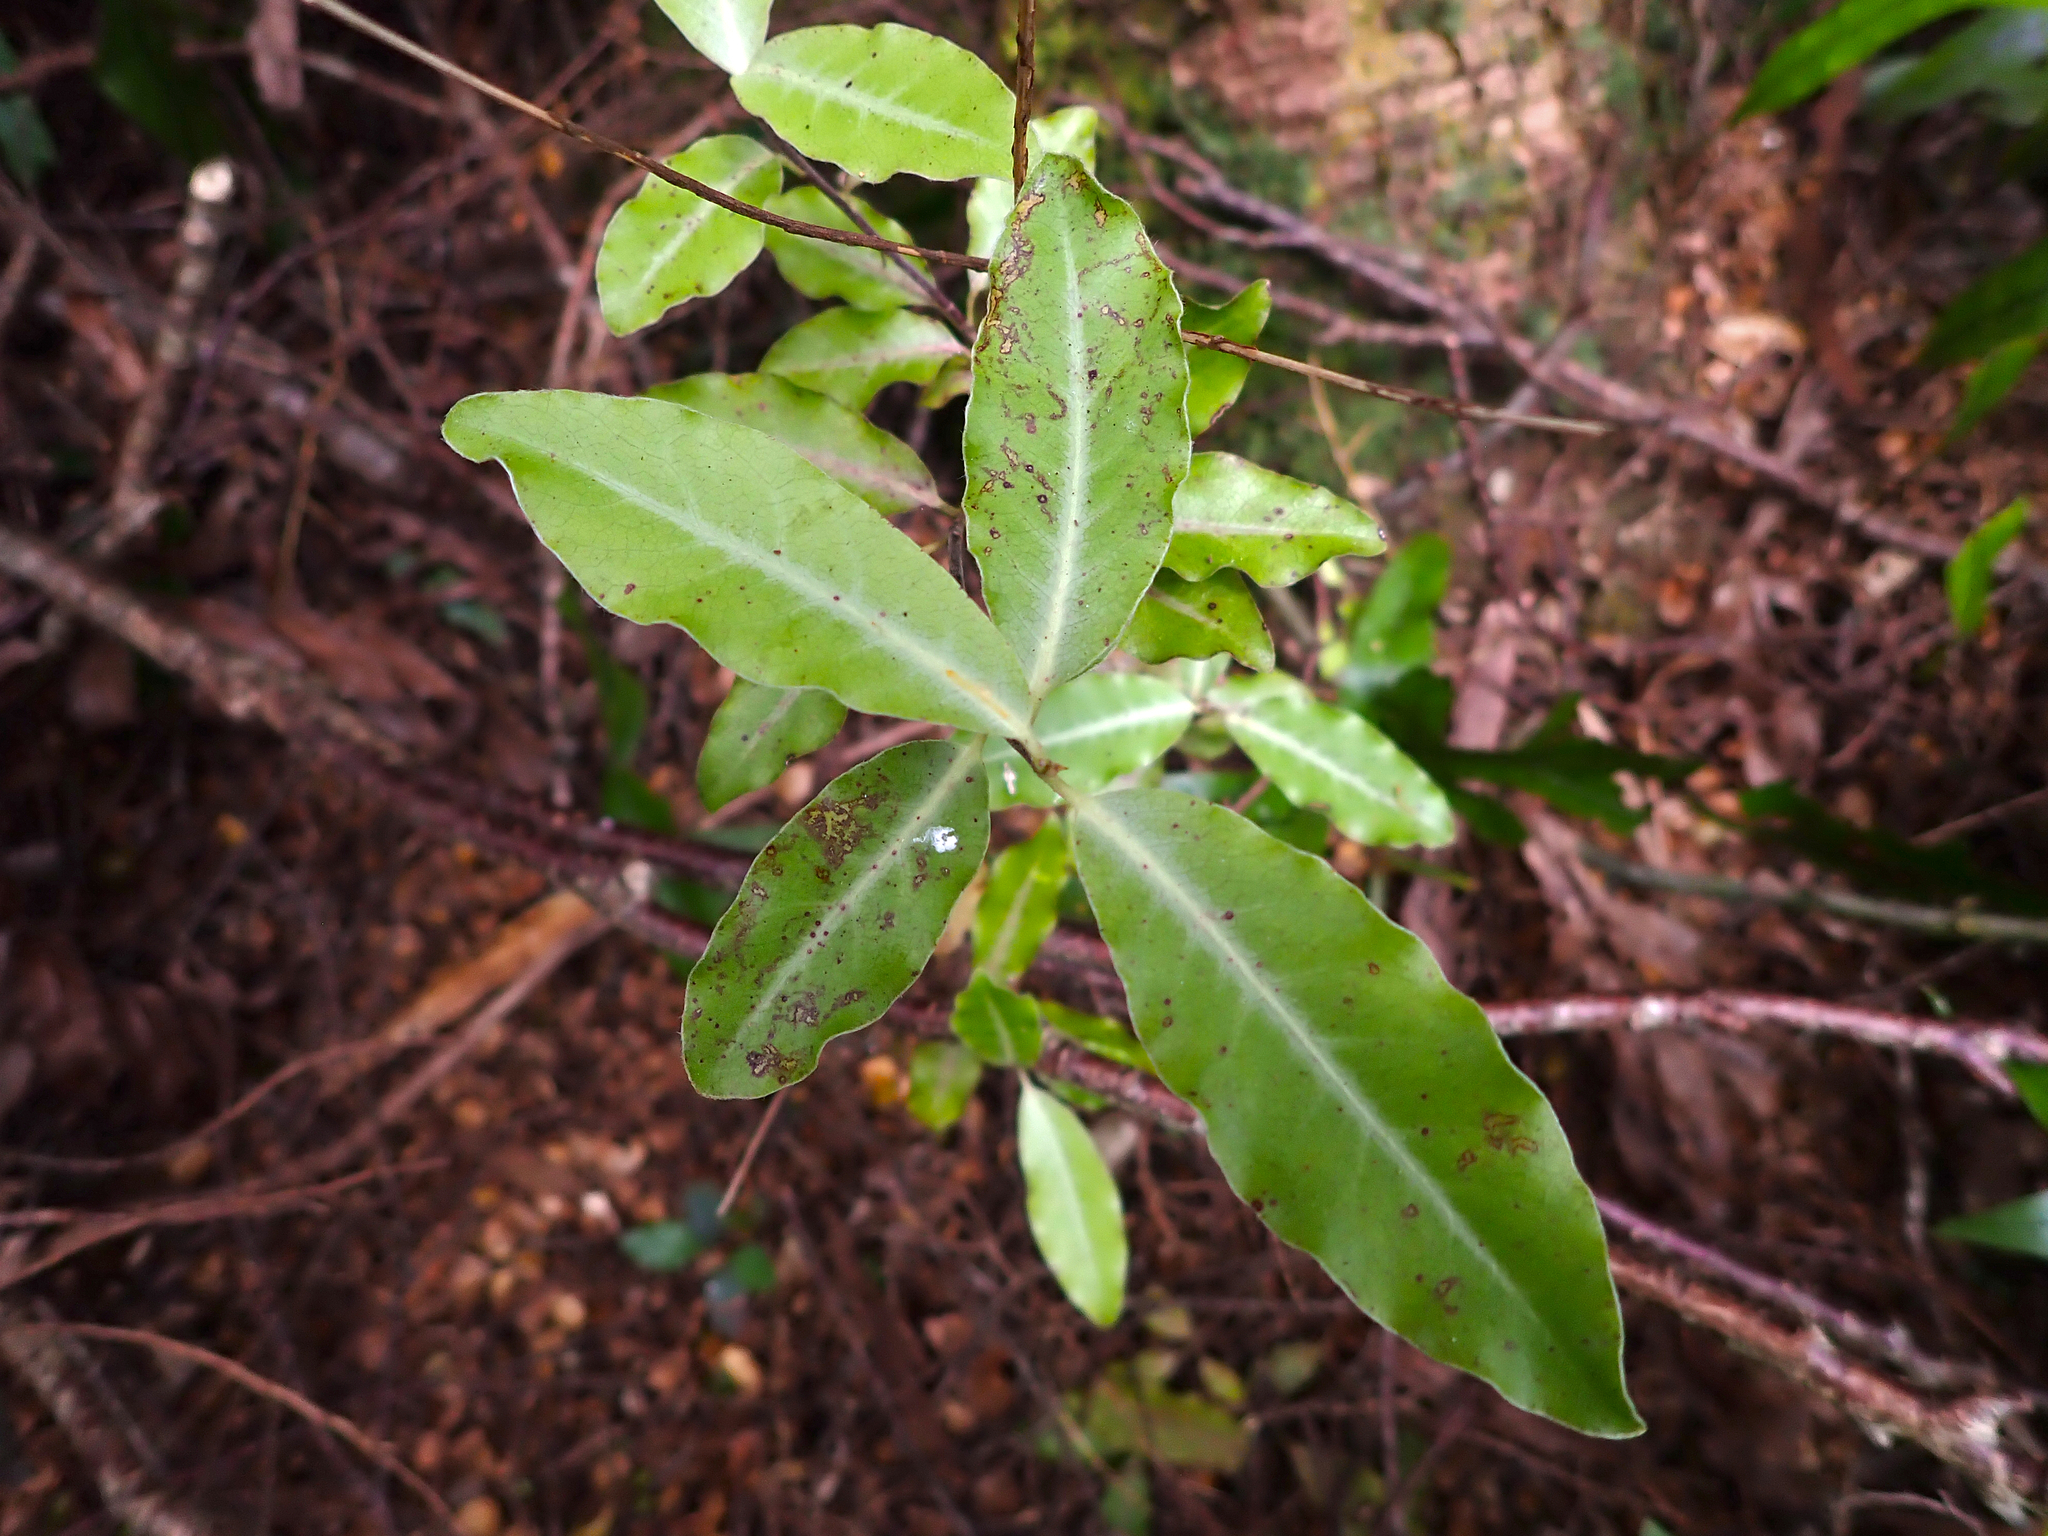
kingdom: Plantae
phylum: Tracheophyta
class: Magnoliopsida
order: Apiales
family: Pittosporaceae
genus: Pittosporum
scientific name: Pittosporum eugenioides
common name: Lemonwood
